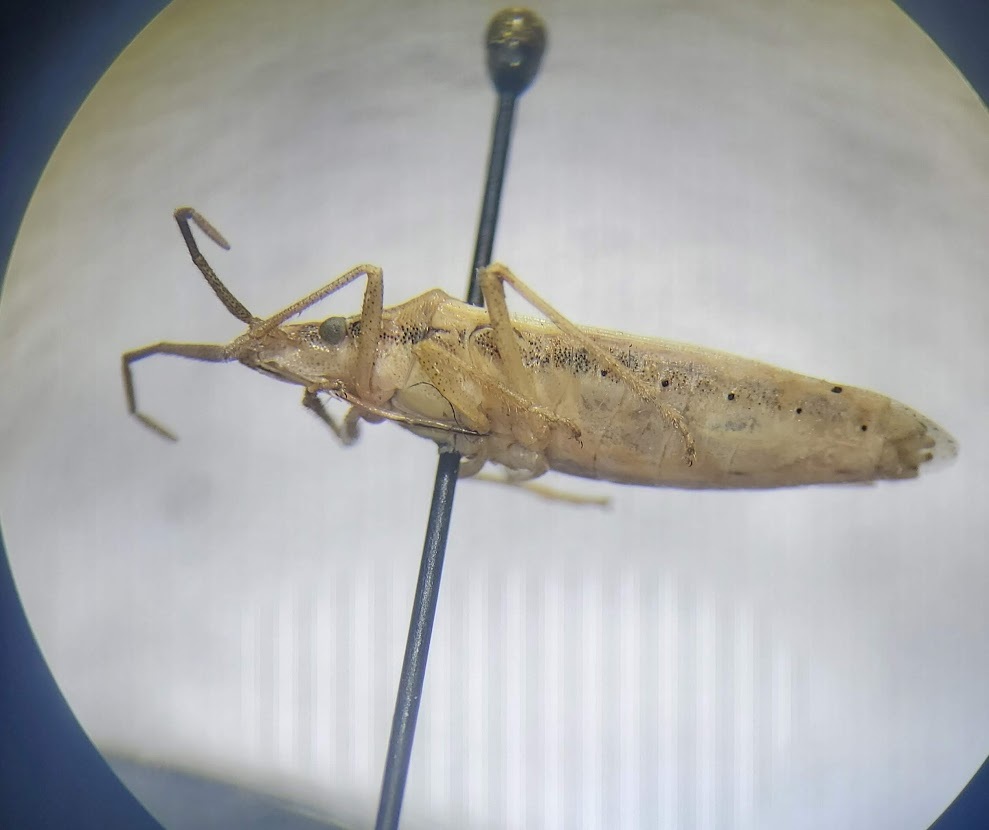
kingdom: Animalia
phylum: Arthropoda
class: Insecta
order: Hemiptera
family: Pentatomidae
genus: Mecidea
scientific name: Mecidea major
